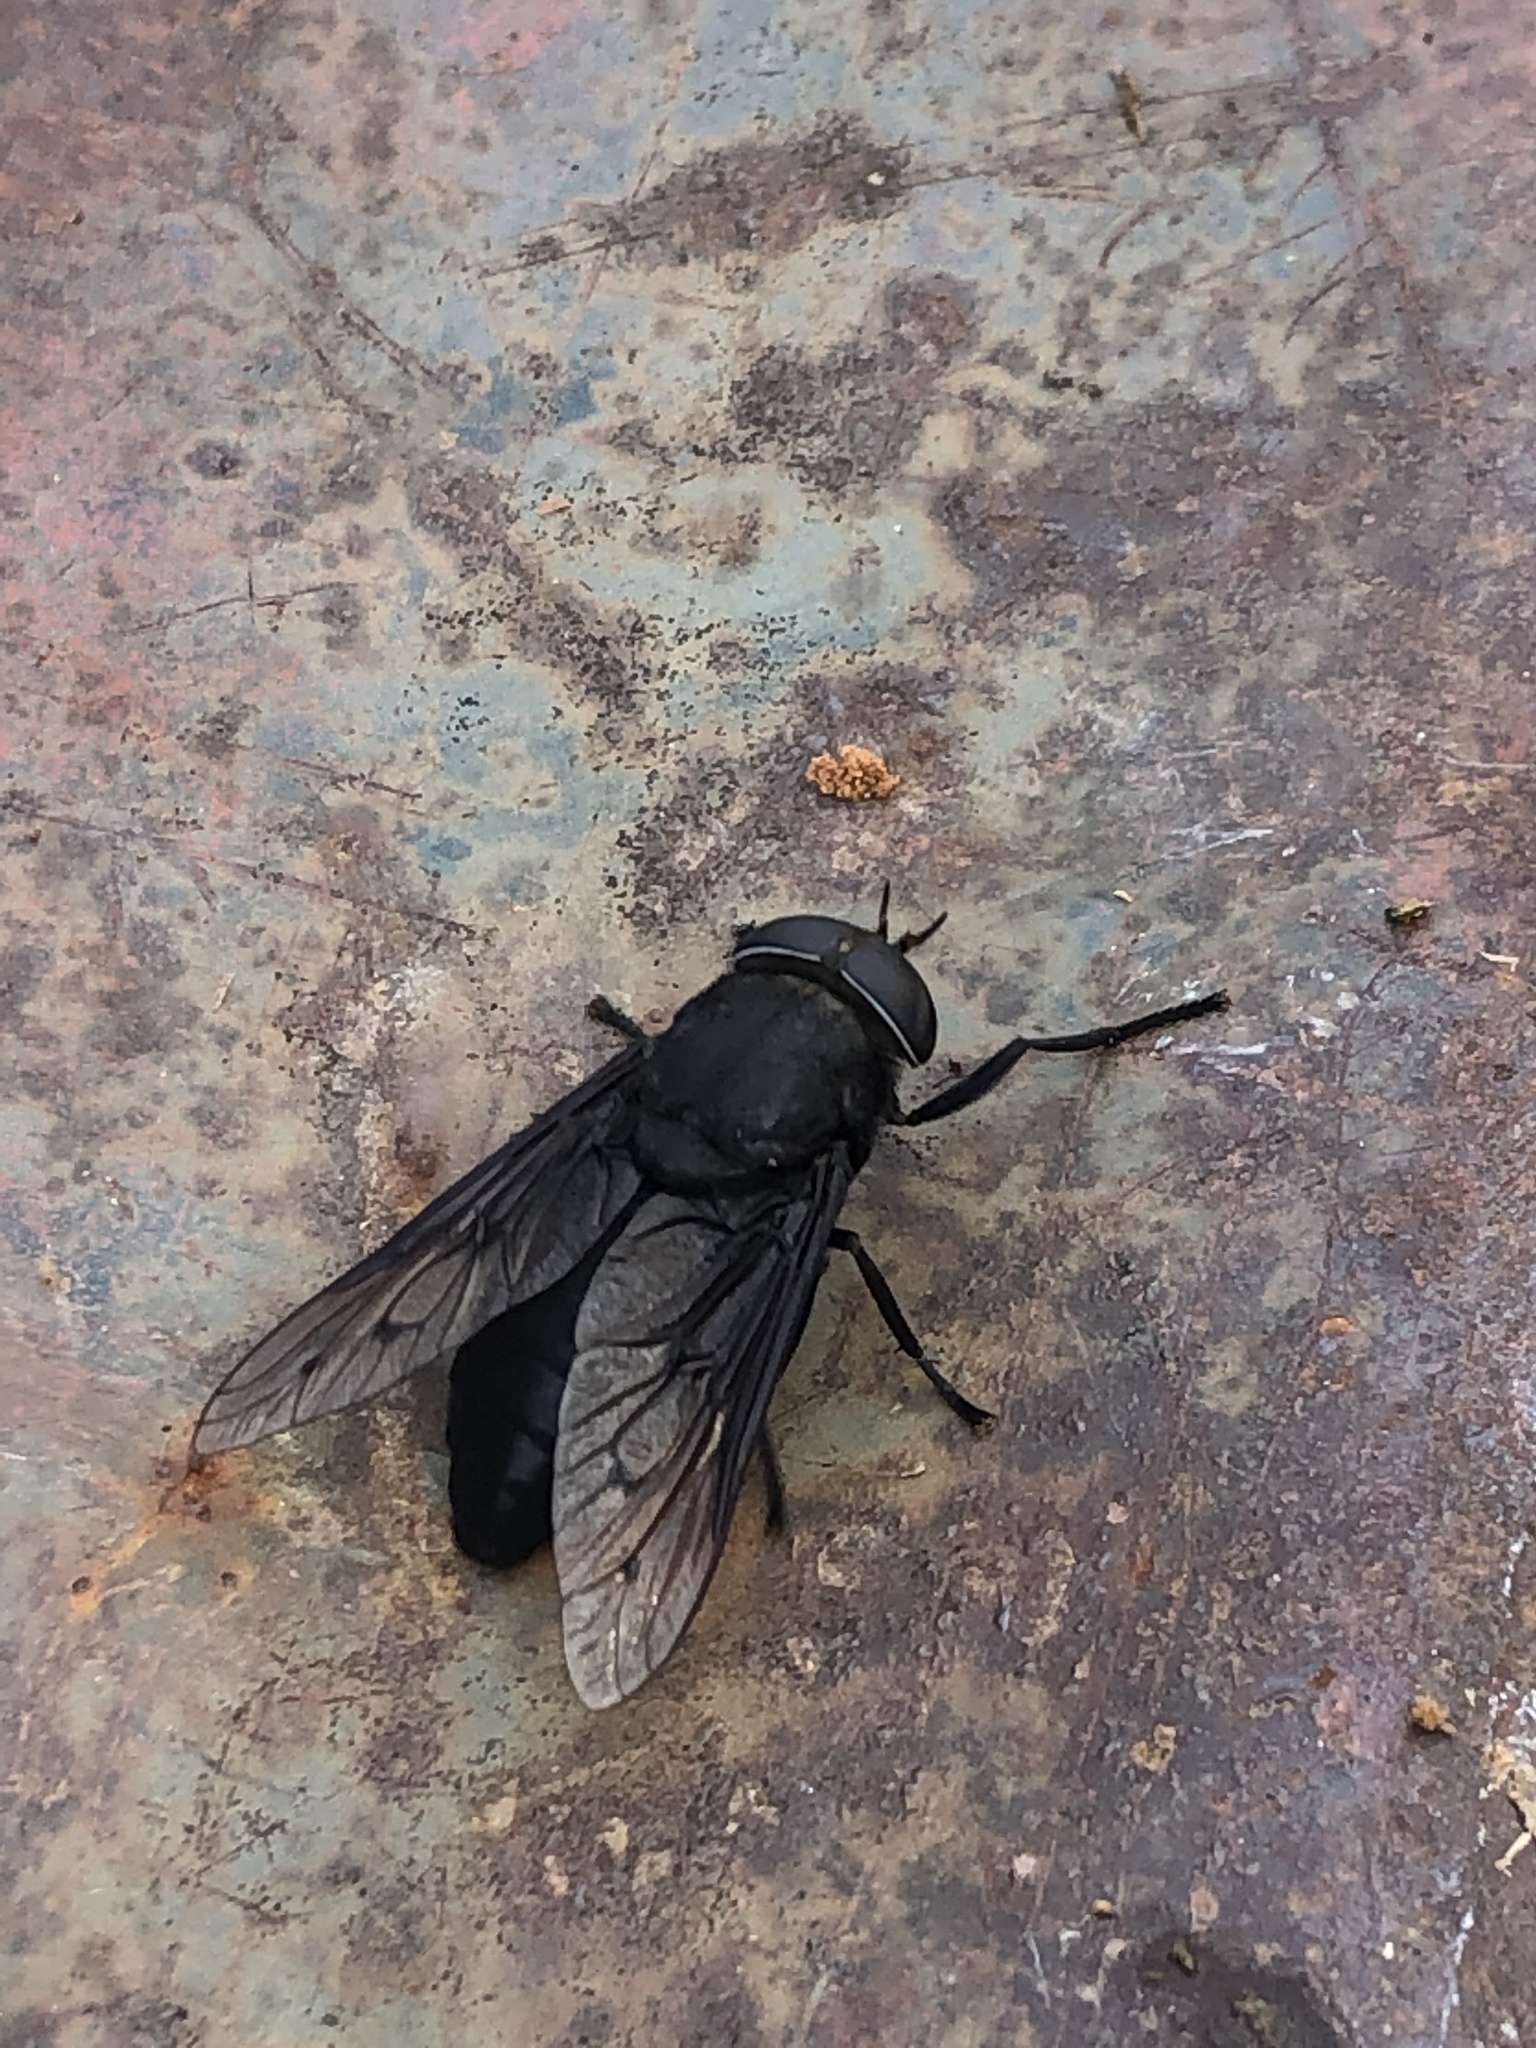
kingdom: Animalia
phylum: Arthropoda
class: Insecta
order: Diptera
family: Tabanidae
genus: Tabanus
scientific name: Tabanus atratus
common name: Black horse fly
